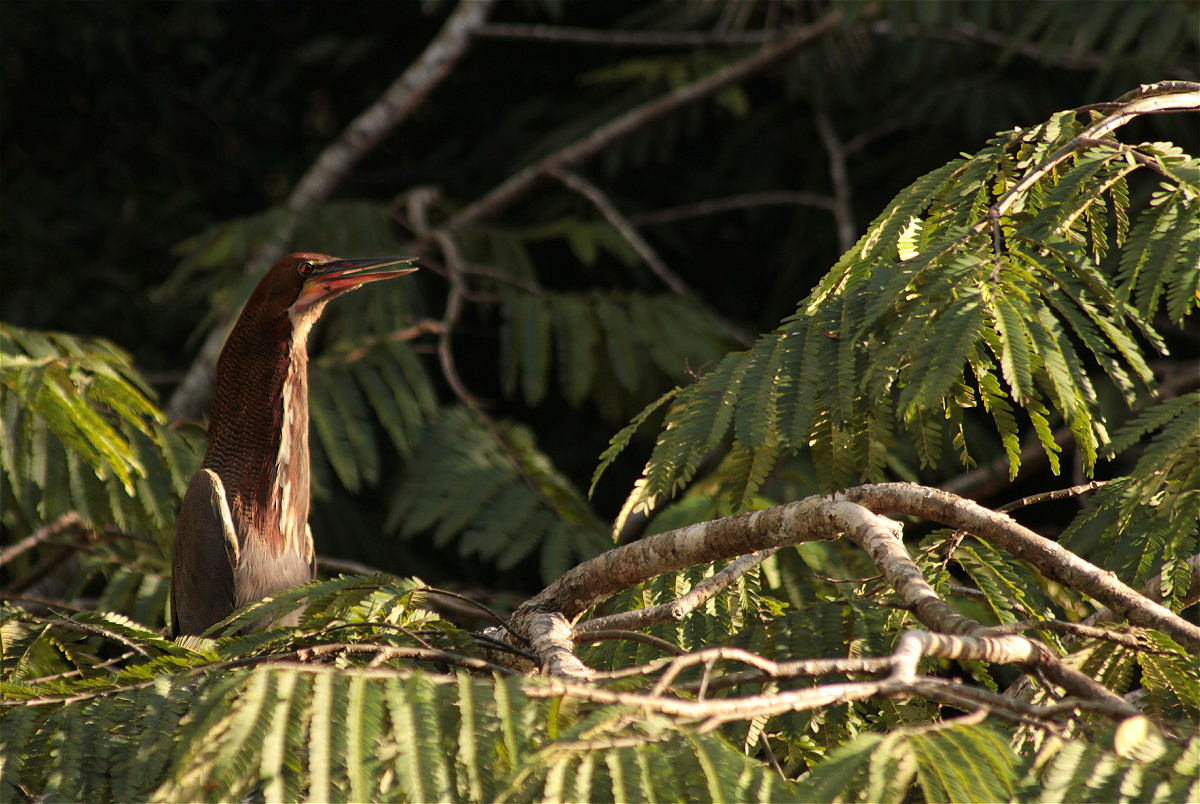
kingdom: Animalia
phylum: Chordata
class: Aves
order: Pelecaniformes
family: Ardeidae
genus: Tigrisoma
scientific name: Tigrisoma lineatum
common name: Rufescent tiger-heron
